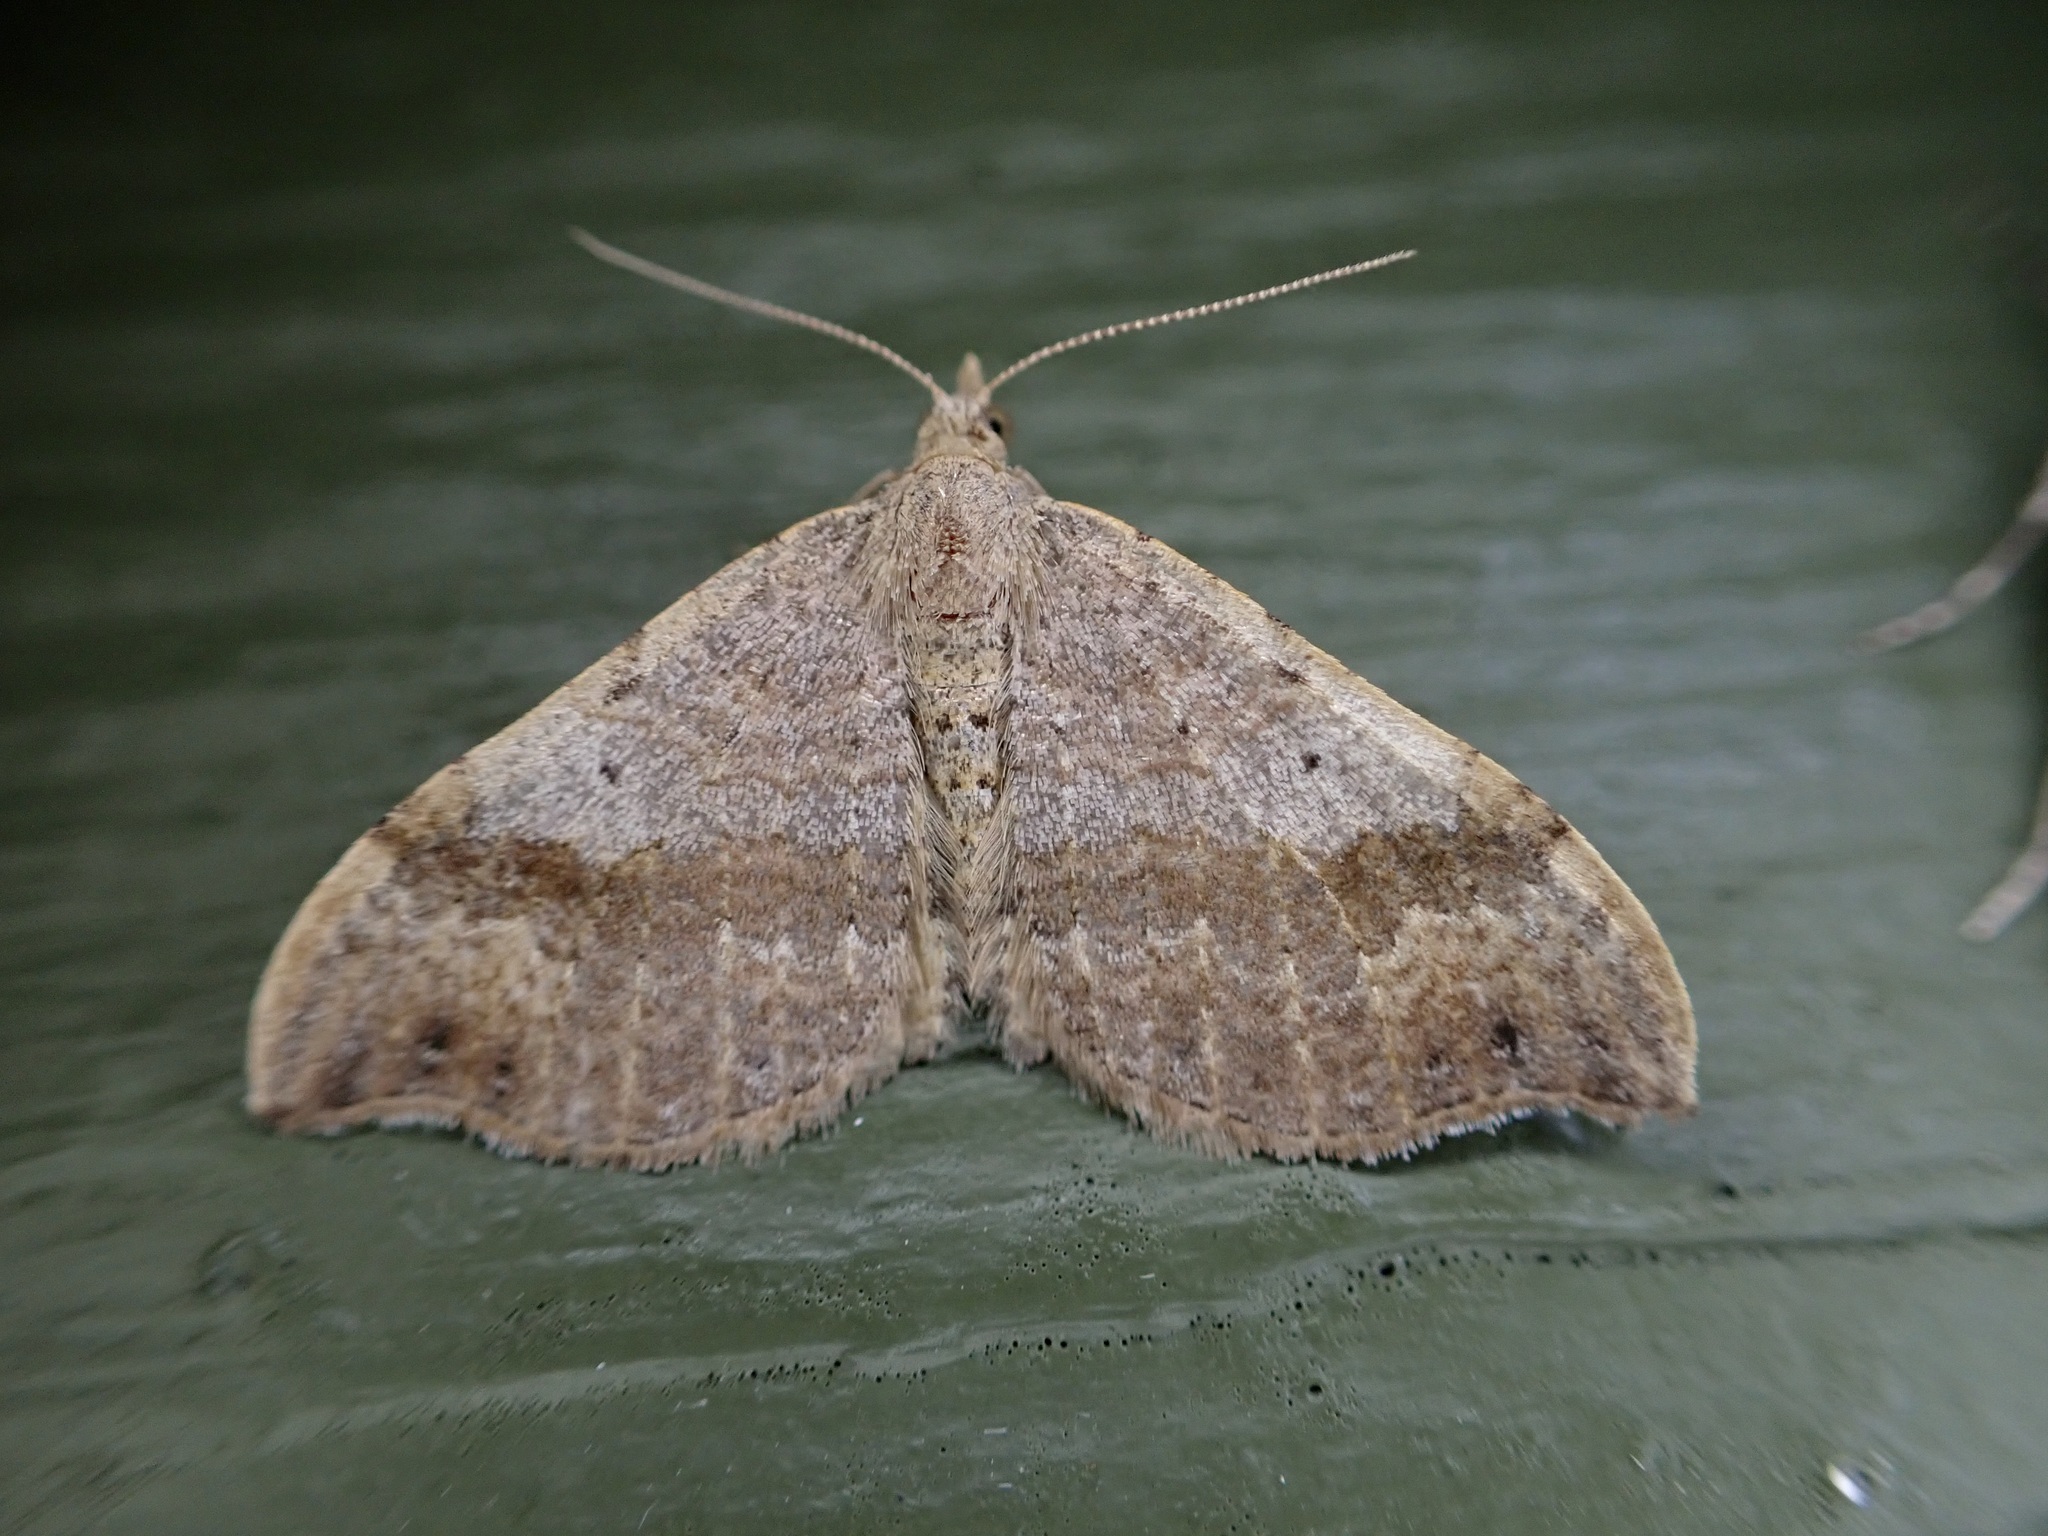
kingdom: Animalia
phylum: Arthropoda
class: Insecta
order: Lepidoptera
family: Geometridae
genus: Homodotis
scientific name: Homodotis megaspilata
